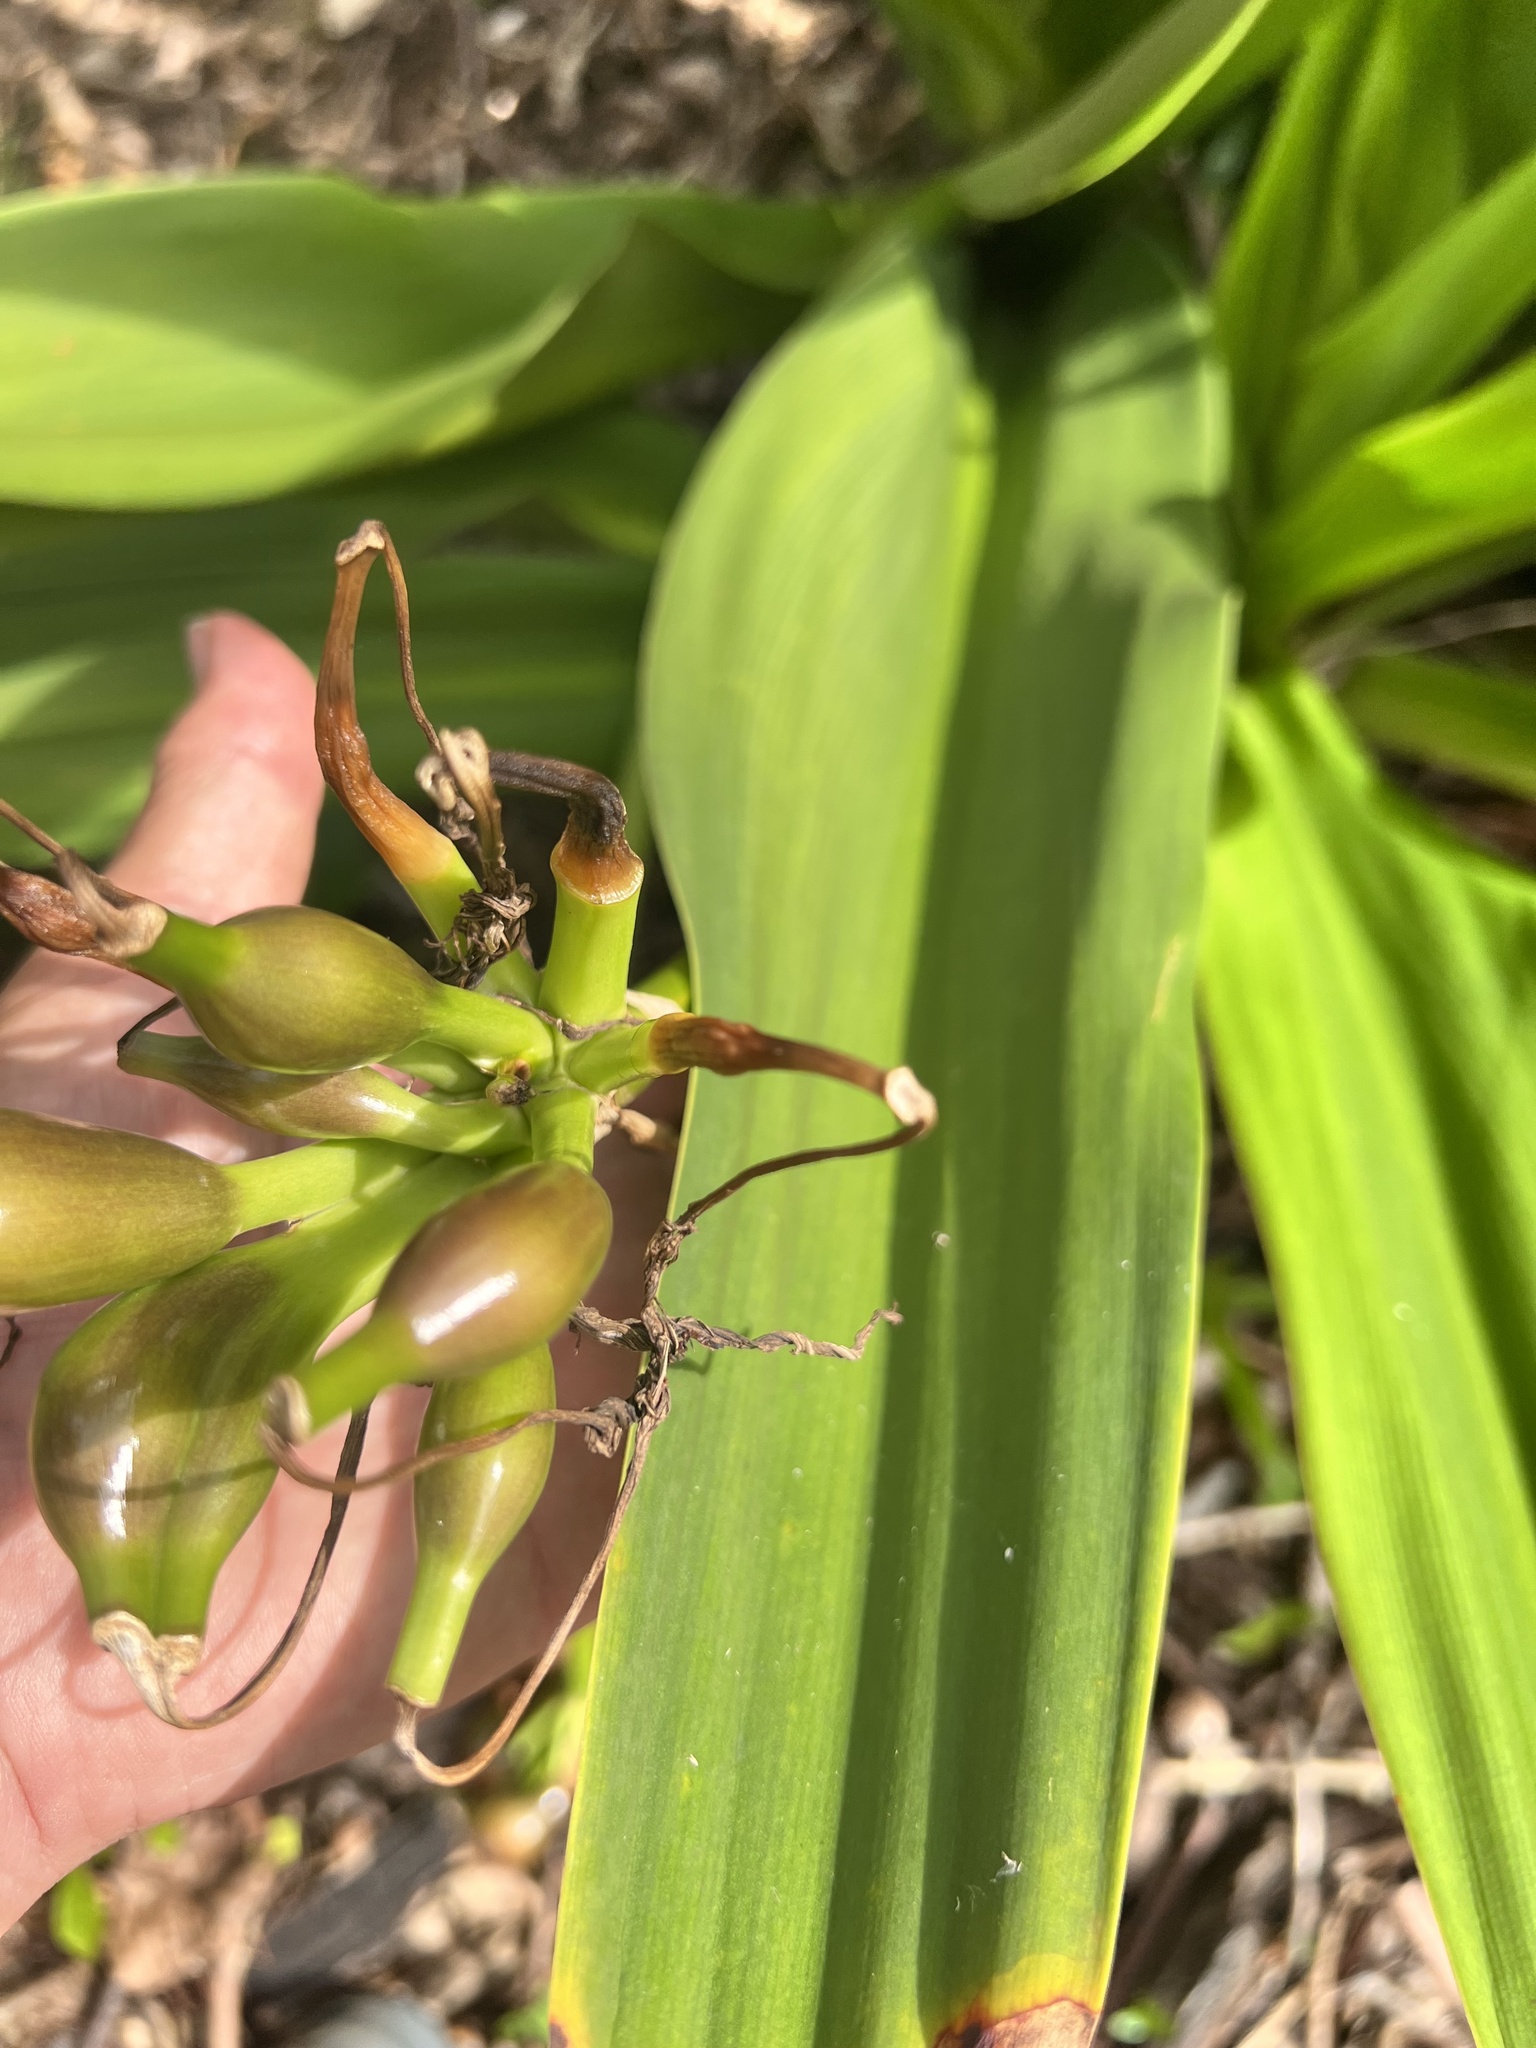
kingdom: Plantae
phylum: Tracheophyta
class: Liliopsida
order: Asparagales
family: Amaryllidaceae
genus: Crinum
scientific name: Crinum asiaticum
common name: Poisonbulb
